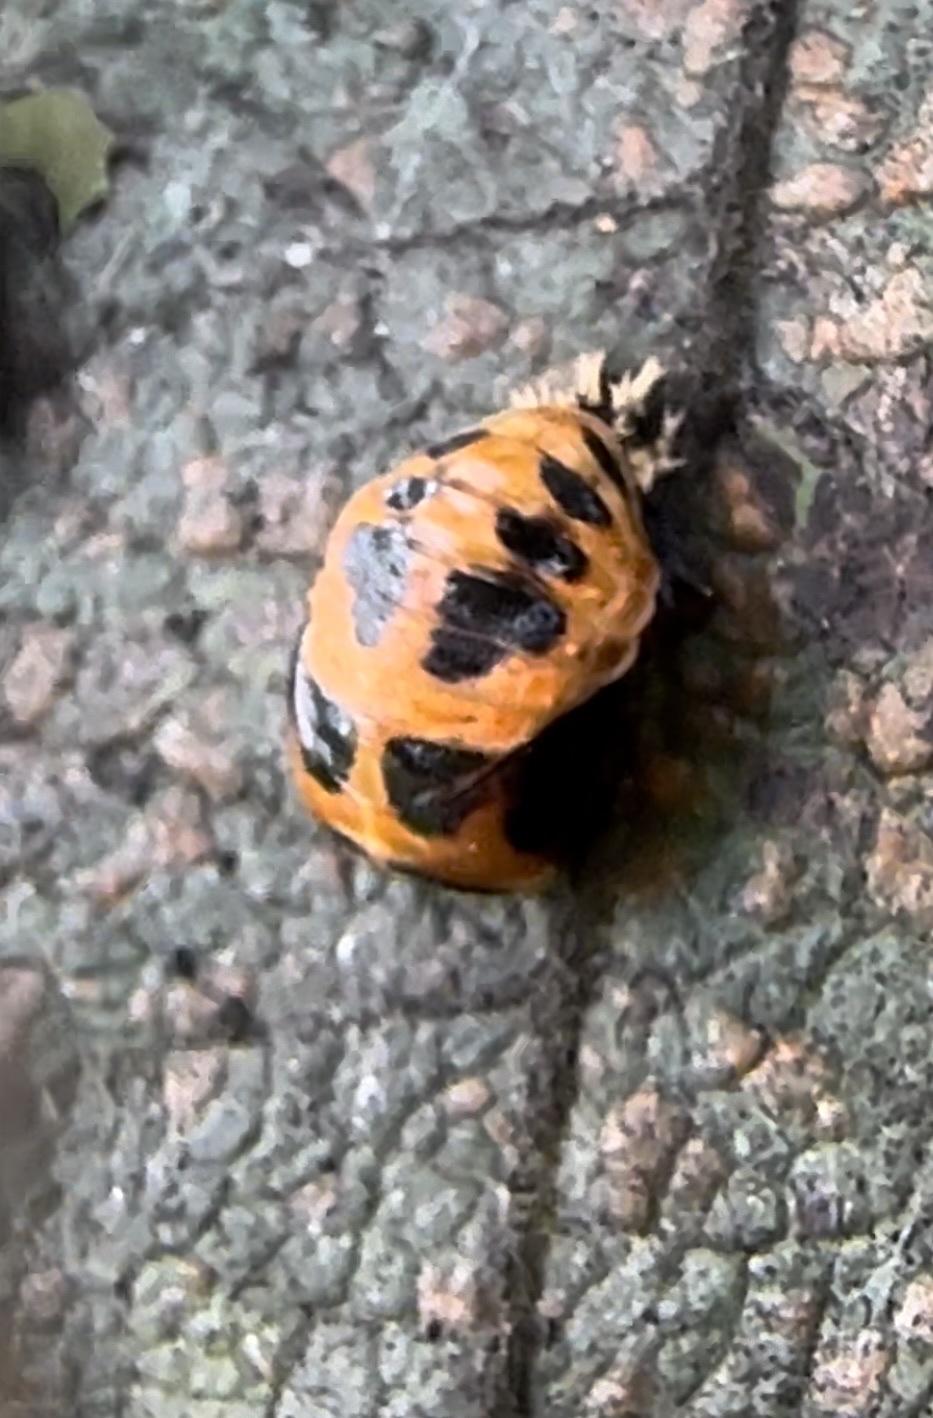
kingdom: Animalia
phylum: Arthropoda
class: Insecta
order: Coleoptera
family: Coccinellidae
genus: Harmonia
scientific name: Harmonia axyridis
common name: Harlequin ladybird
